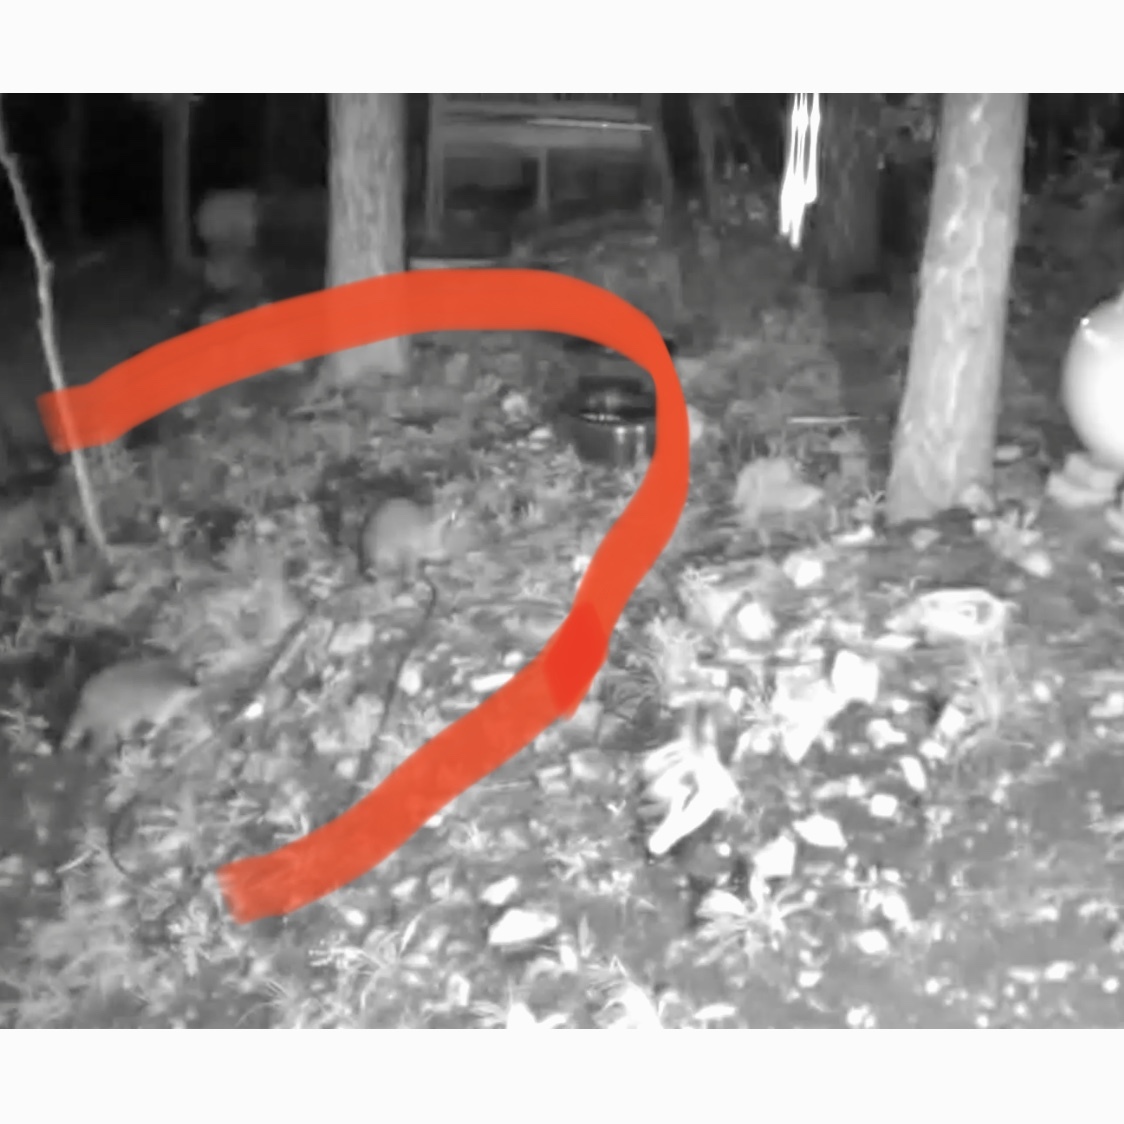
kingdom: Animalia
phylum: Chordata
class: Mammalia
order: Carnivora
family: Procyonidae
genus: Procyon
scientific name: Procyon lotor
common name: Raccoon
